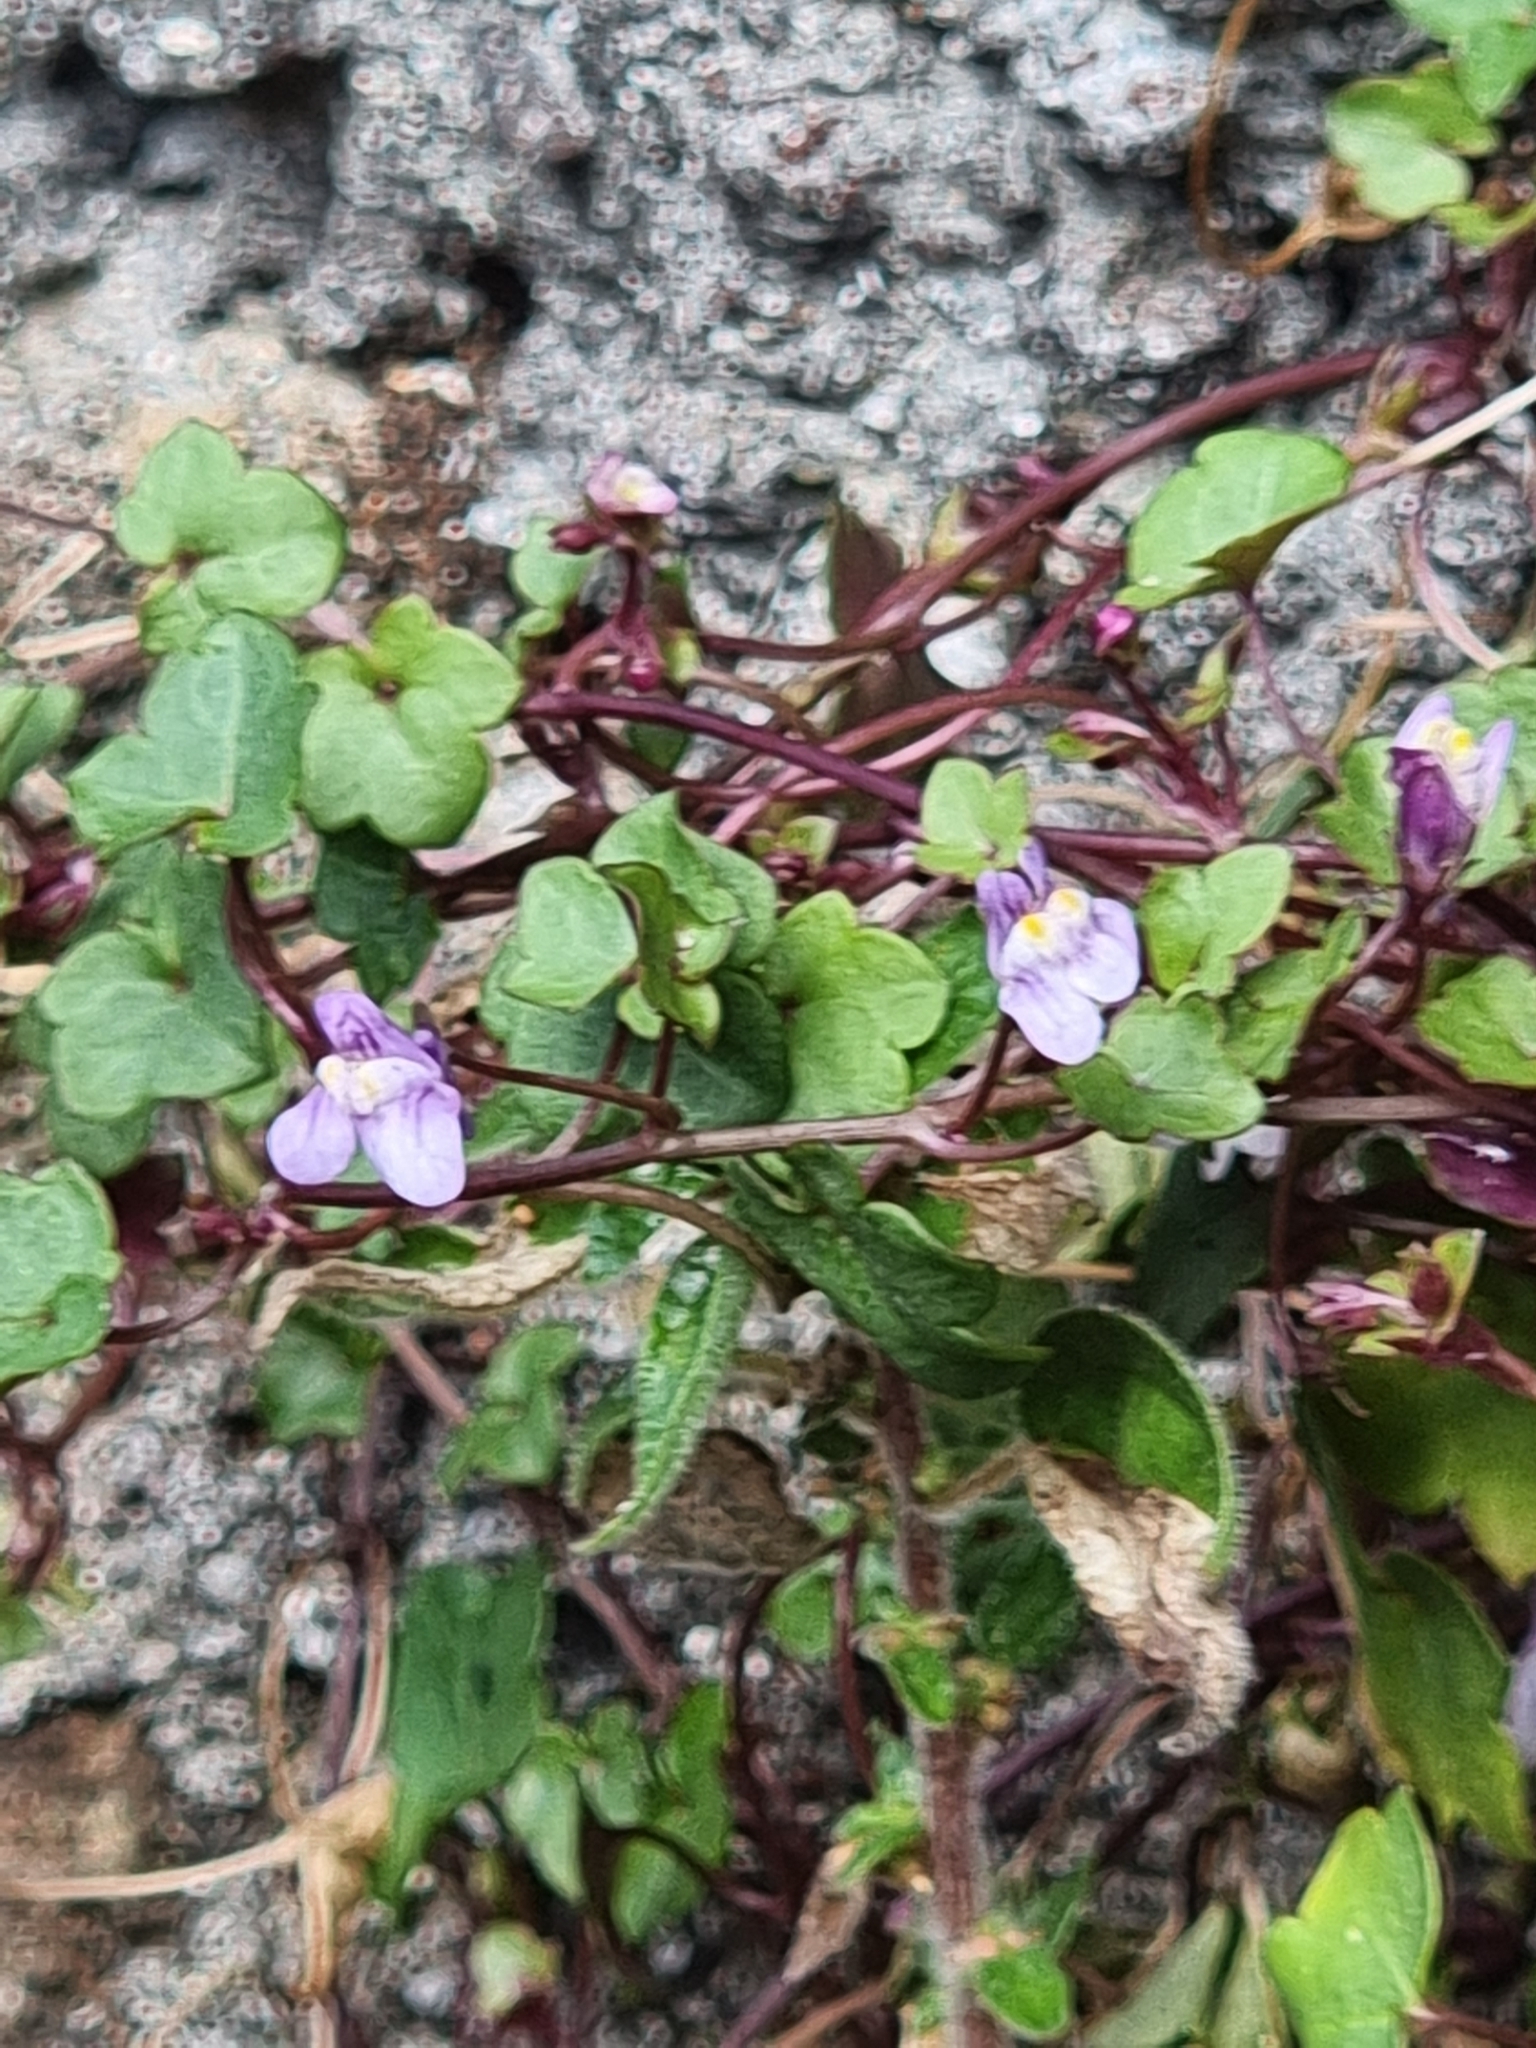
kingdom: Plantae
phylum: Tracheophyta
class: Magnoliopsida
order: Lamiales
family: Plantaginaceae
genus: Cymbalaria
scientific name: Cymbalaria muralis
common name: Ivy-leaved toadflax
